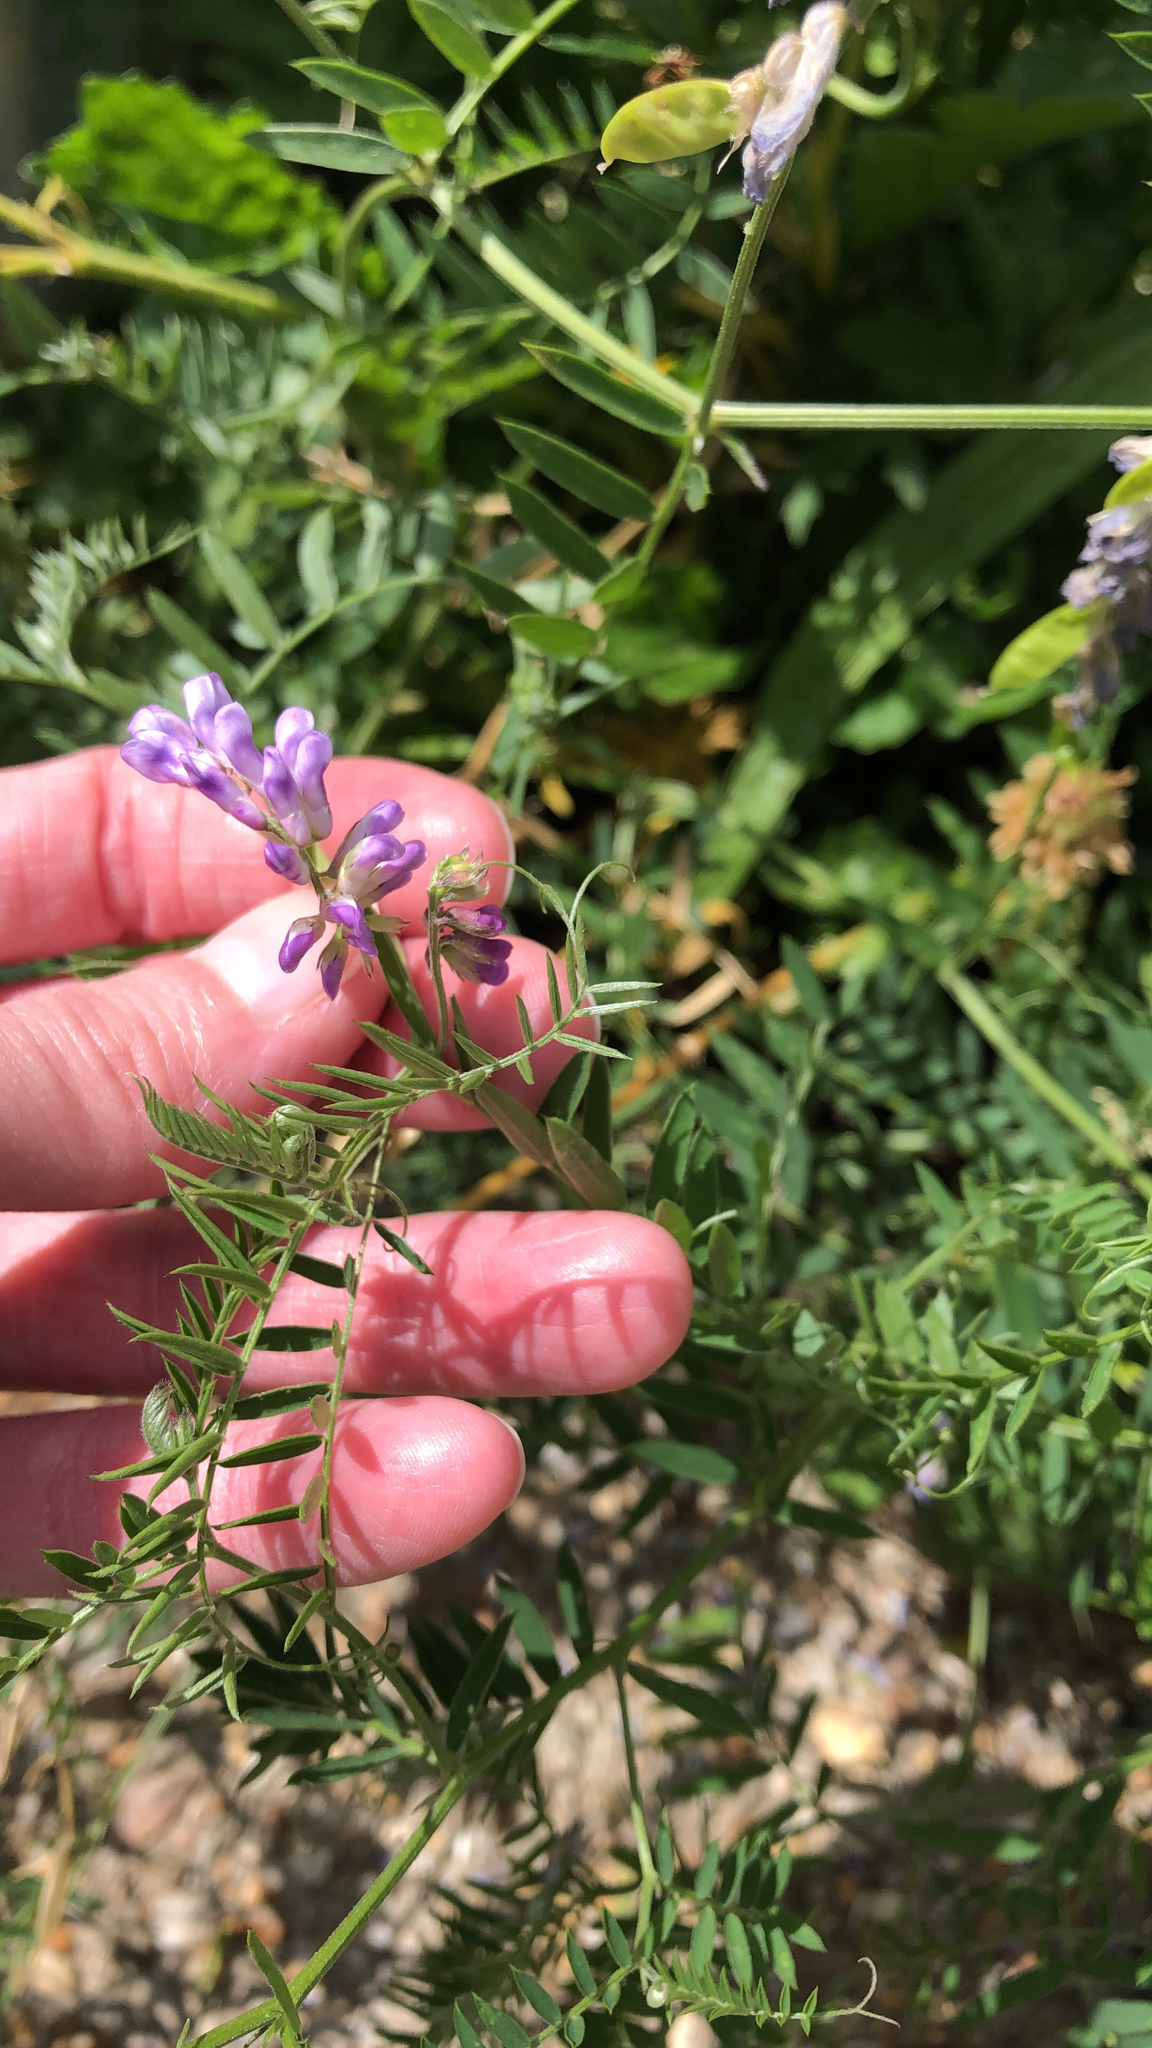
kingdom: Plantae
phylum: Tracheophyta
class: Magnoliopsida
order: Fabales
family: Fabaceae
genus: Vicia
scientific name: Vicia cracca
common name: Bird vetch
